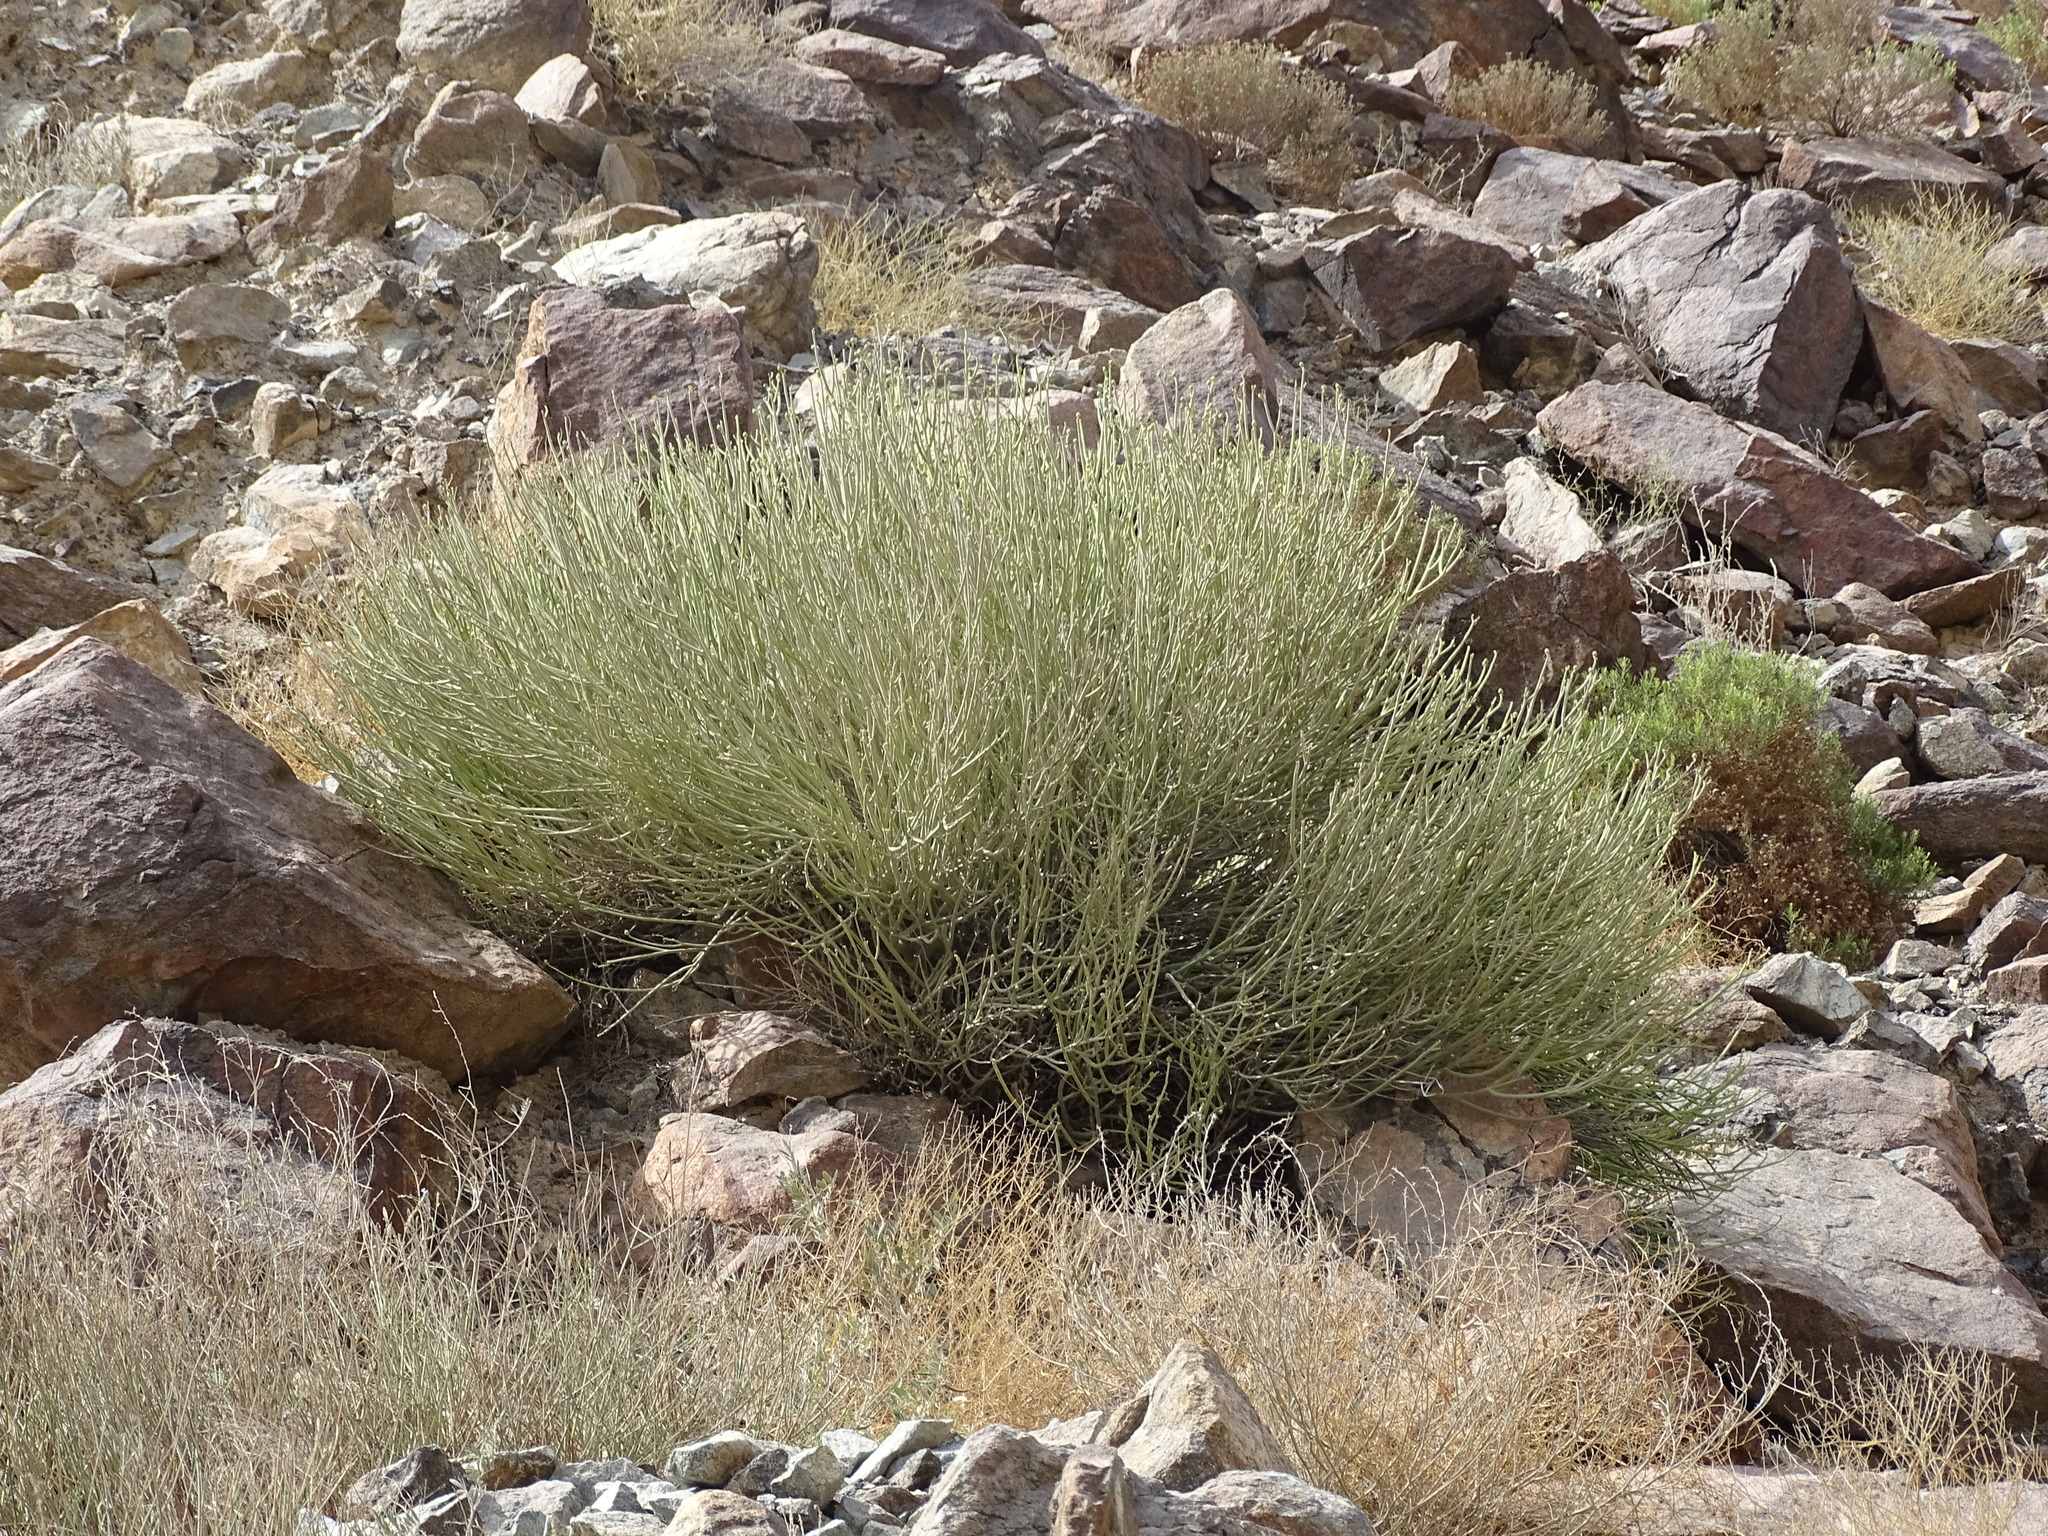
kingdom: Plantae
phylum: Tracheophyta
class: Magnoliopsida
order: Malpighiales
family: Euphorbiaceae
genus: Euphorbia
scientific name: Euphorbia larica
